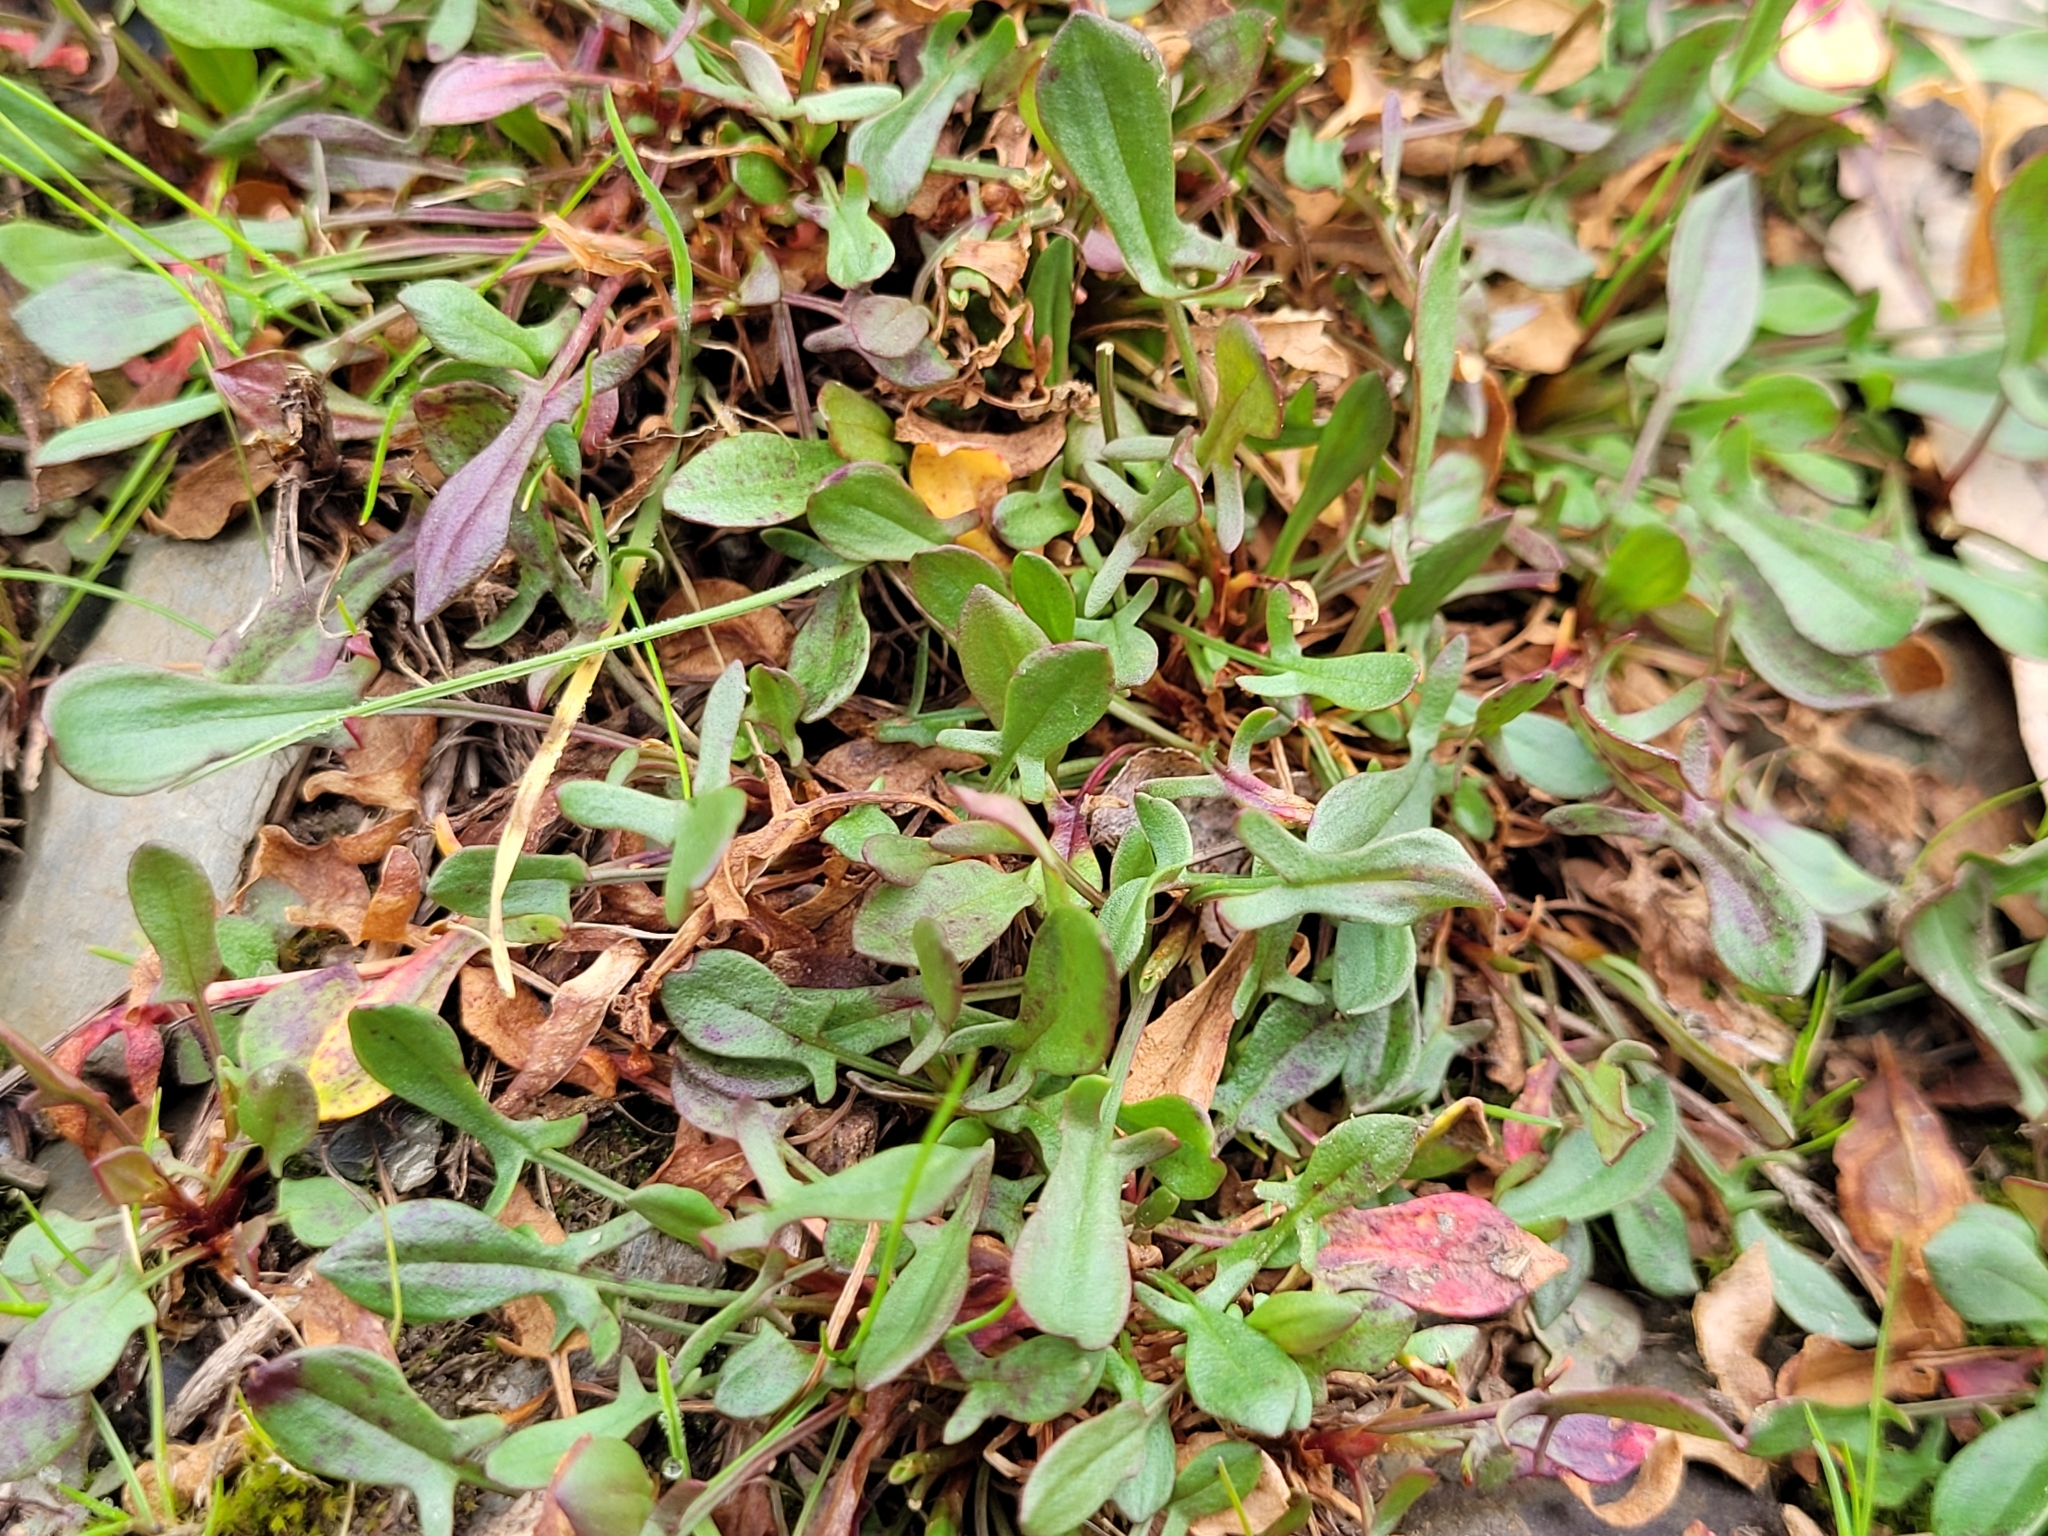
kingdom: Plantae
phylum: Tracheophyta
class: Magnoliopsida
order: Caryophyllales
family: Polygonaceae
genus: Rumex
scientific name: Rumex acetosella
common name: Common sheep sorrel
